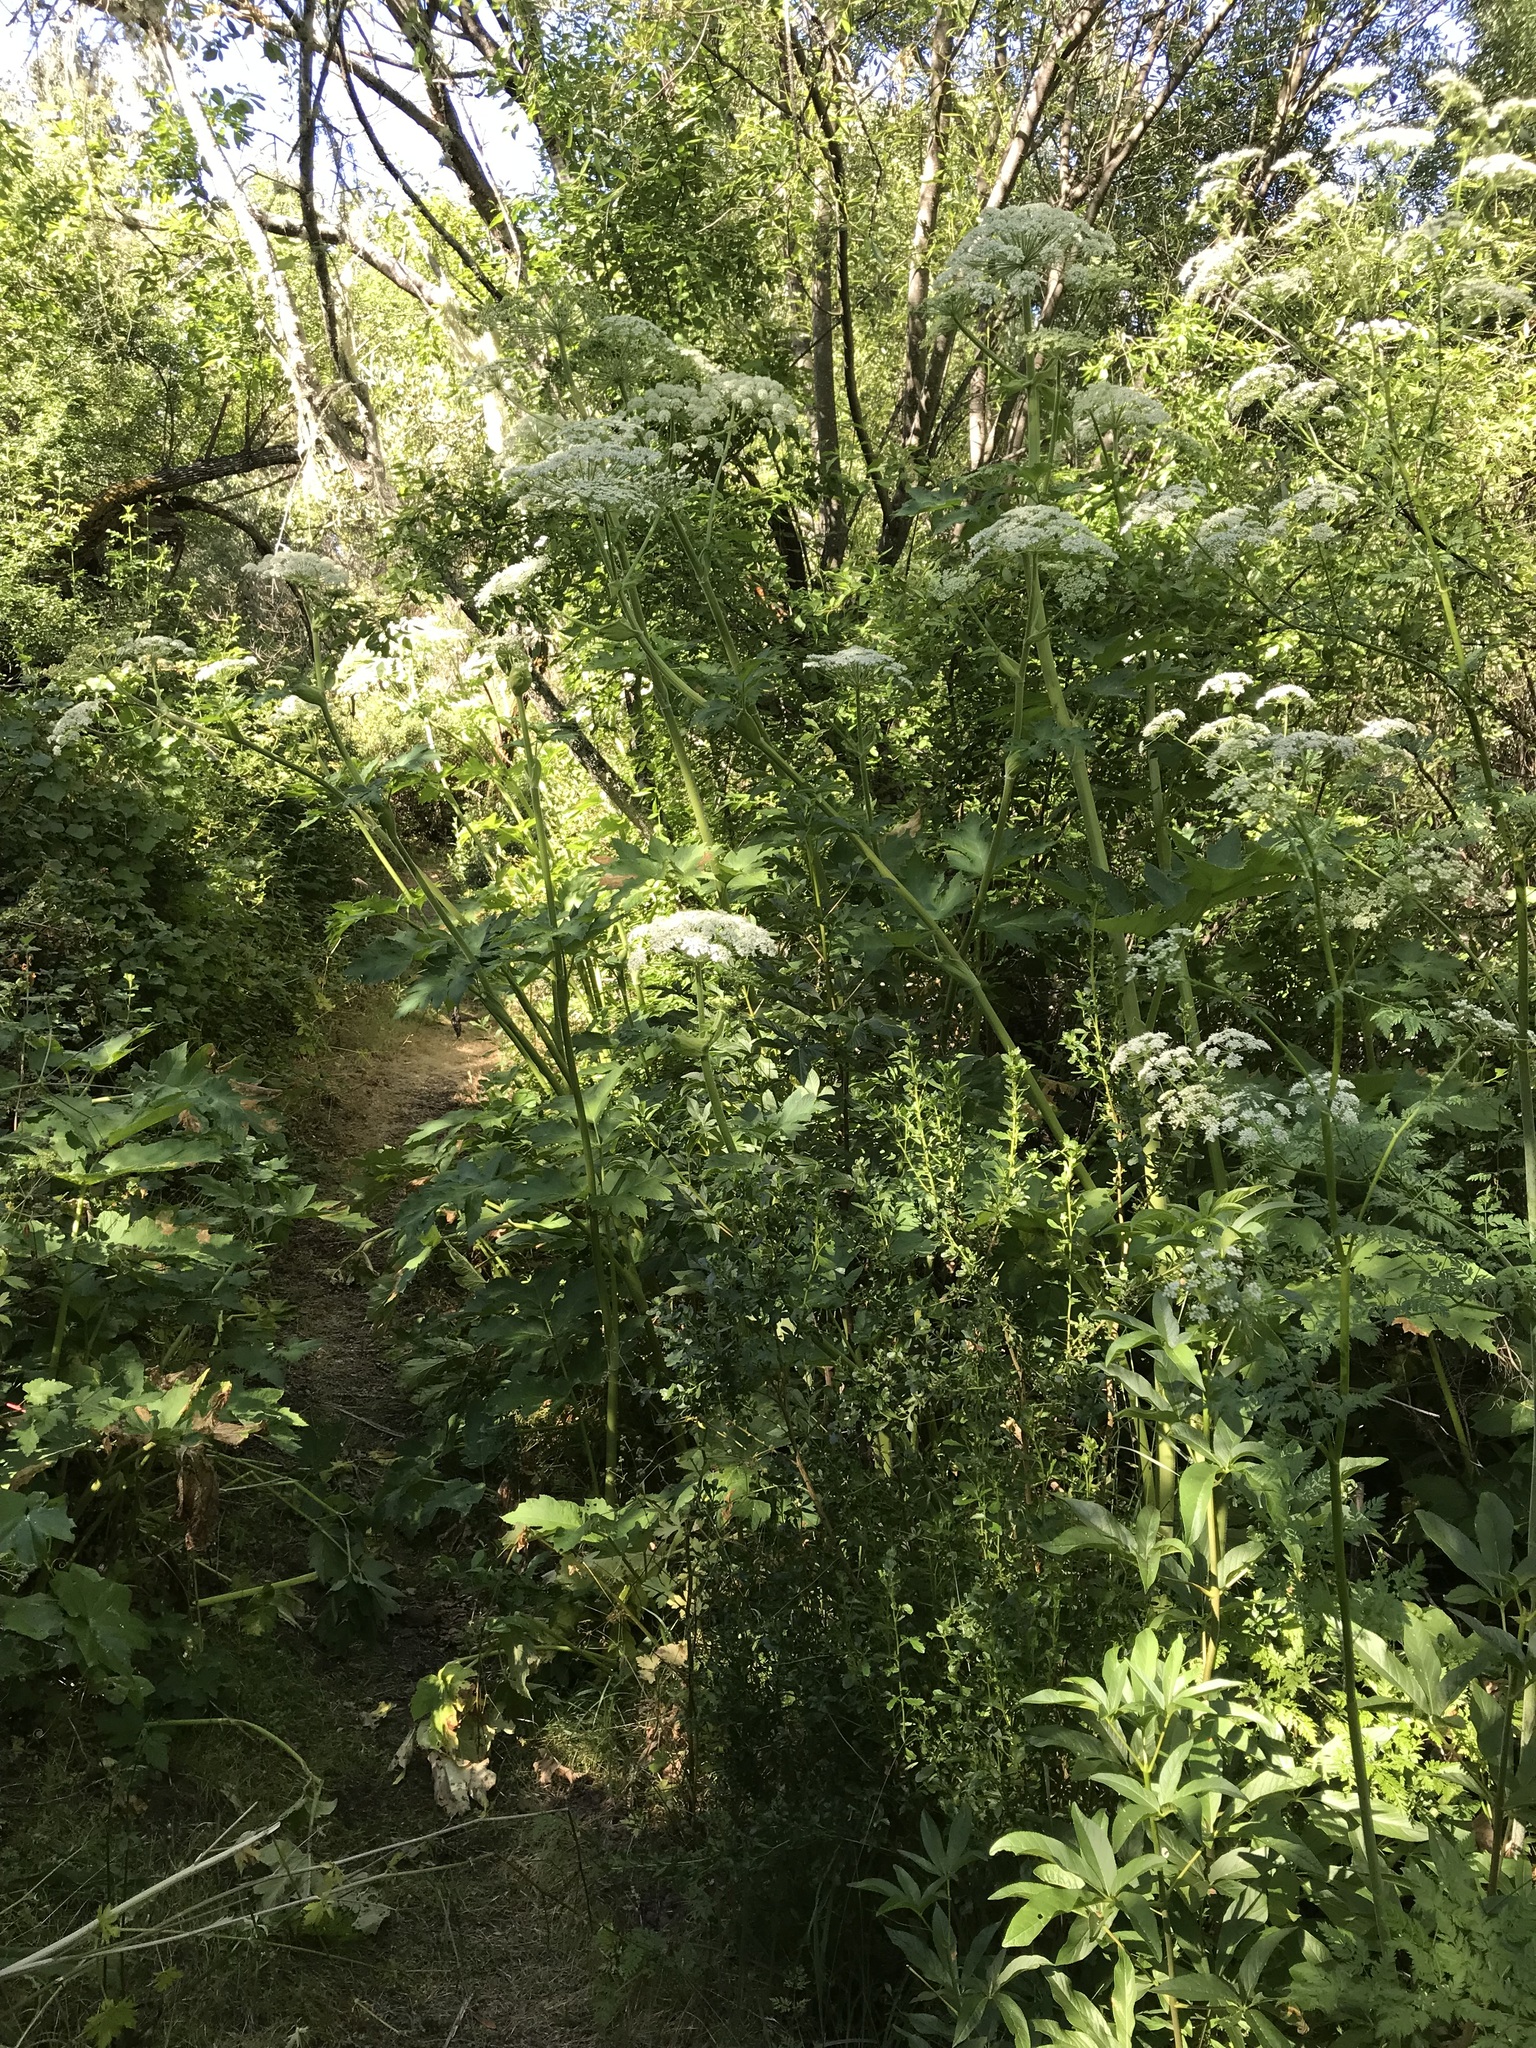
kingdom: Plantae
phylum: Tracheophyta
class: Magnoliopsida
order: Apiales
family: Apiaceae
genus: Conium
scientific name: Conium maculatum
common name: Hemlock
